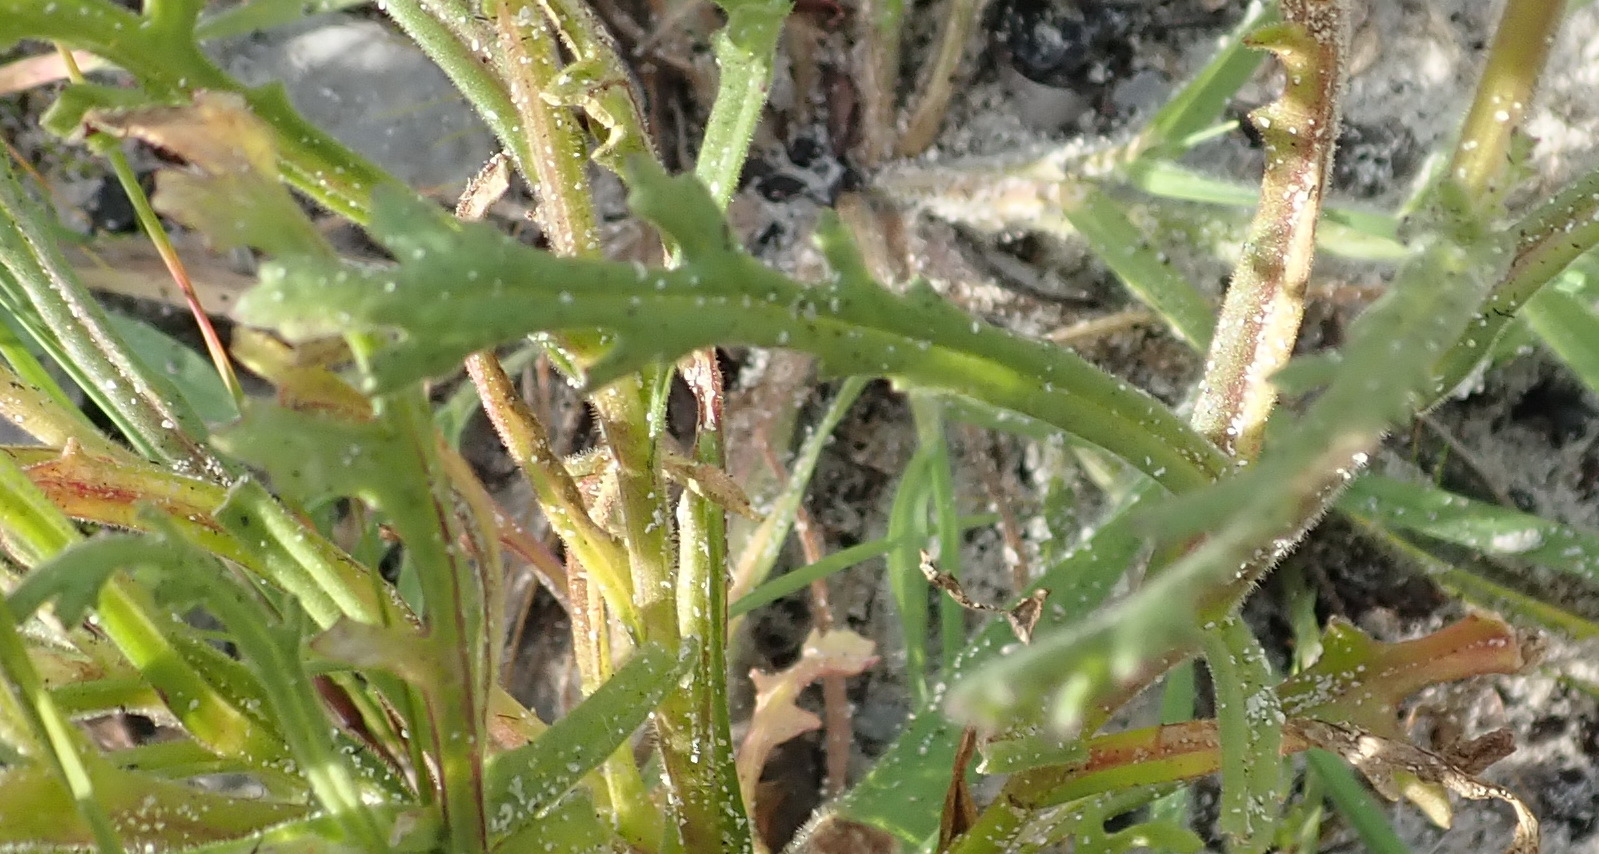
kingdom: Plantae
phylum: Tracheophyta
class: Magnoliopsida
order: Asterales
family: Asteraceae
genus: Senecio
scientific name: Senecio arenarius
